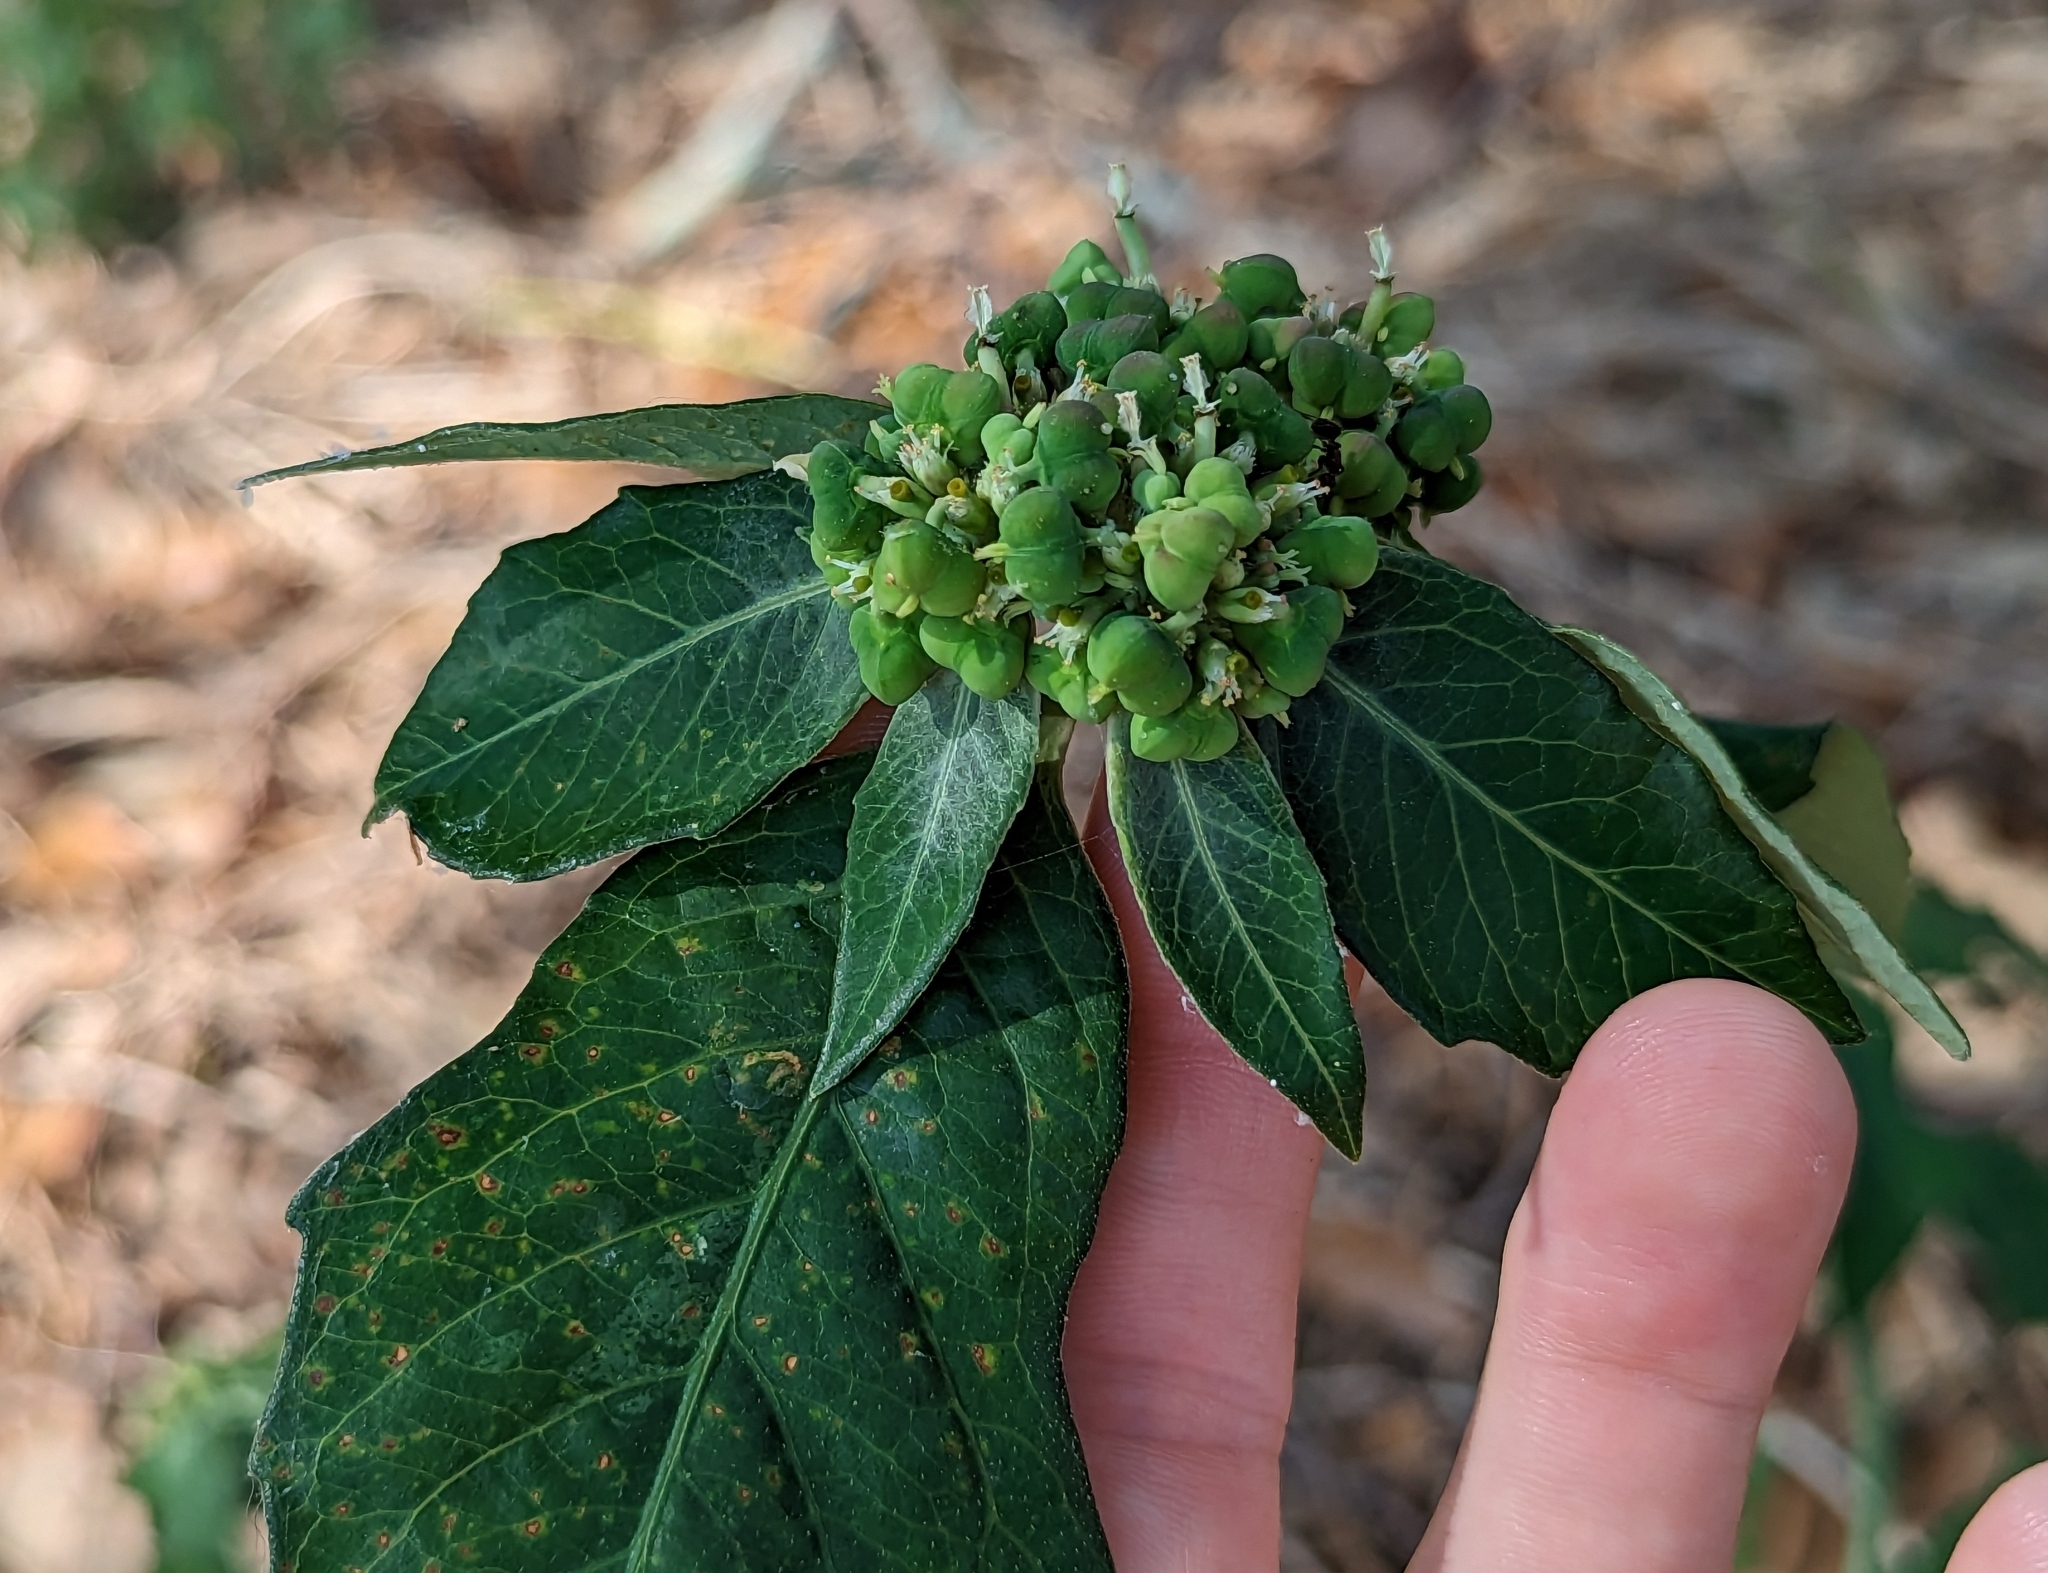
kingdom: Plantae
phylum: Tracheophyta
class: Magnoliopsida
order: Malpighiales
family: Euphorbiaceae
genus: Euphorbia
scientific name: Euphorbia heterophylla
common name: Mexican fireplant
